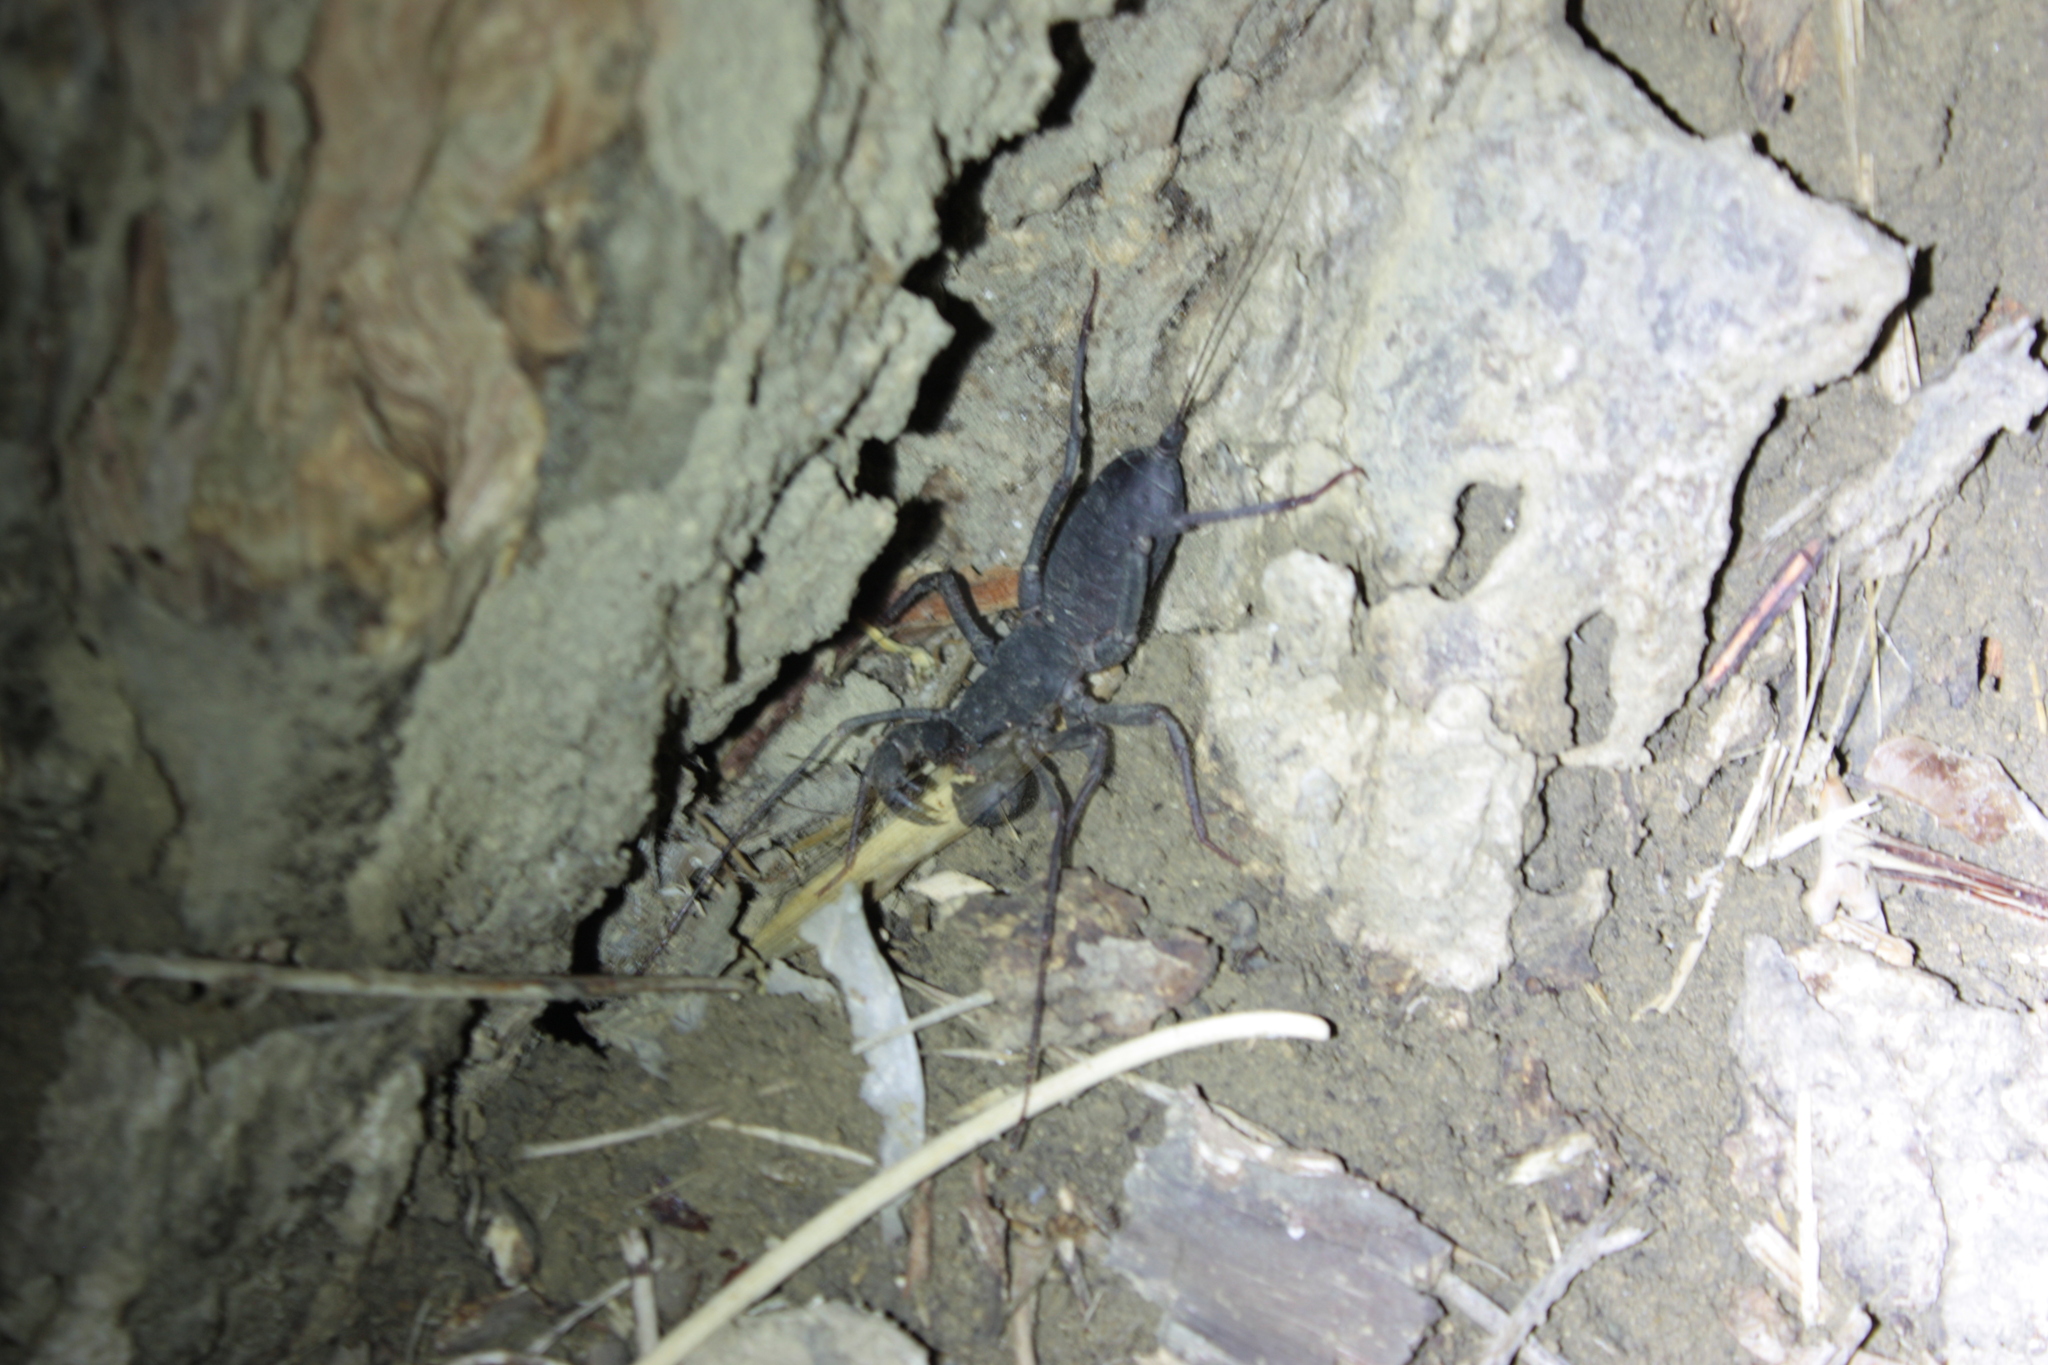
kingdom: Animalia
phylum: Arthropoda
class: Arachnida
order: Uropygi
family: Thelyphonidae
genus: Typopeltis
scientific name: Typopeltis crucifer
